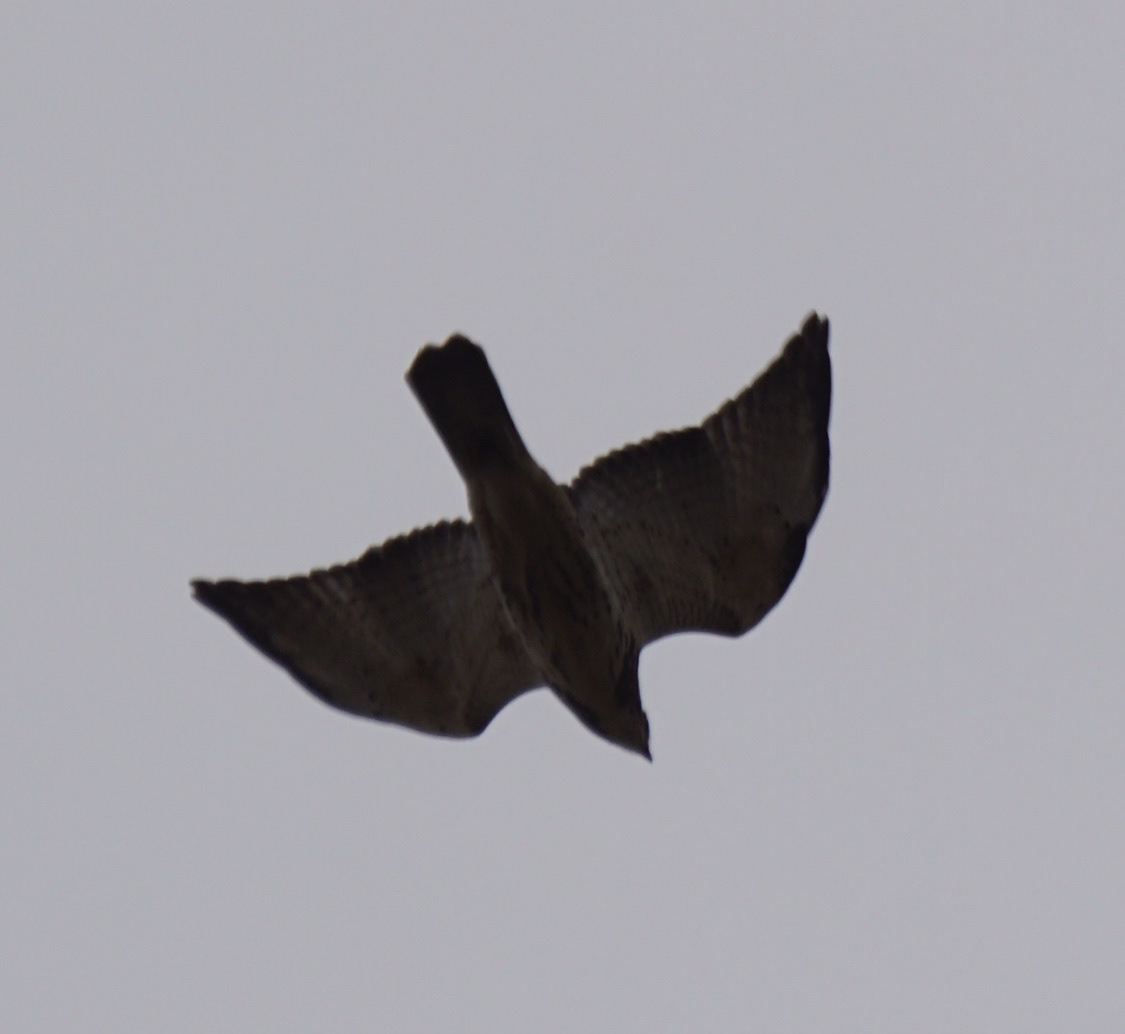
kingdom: Animalia
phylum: Chordata
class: Aves
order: Accipitriformes
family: Accipitridae
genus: Buteo
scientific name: Buteo swainsoni
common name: Swainson's hawk
